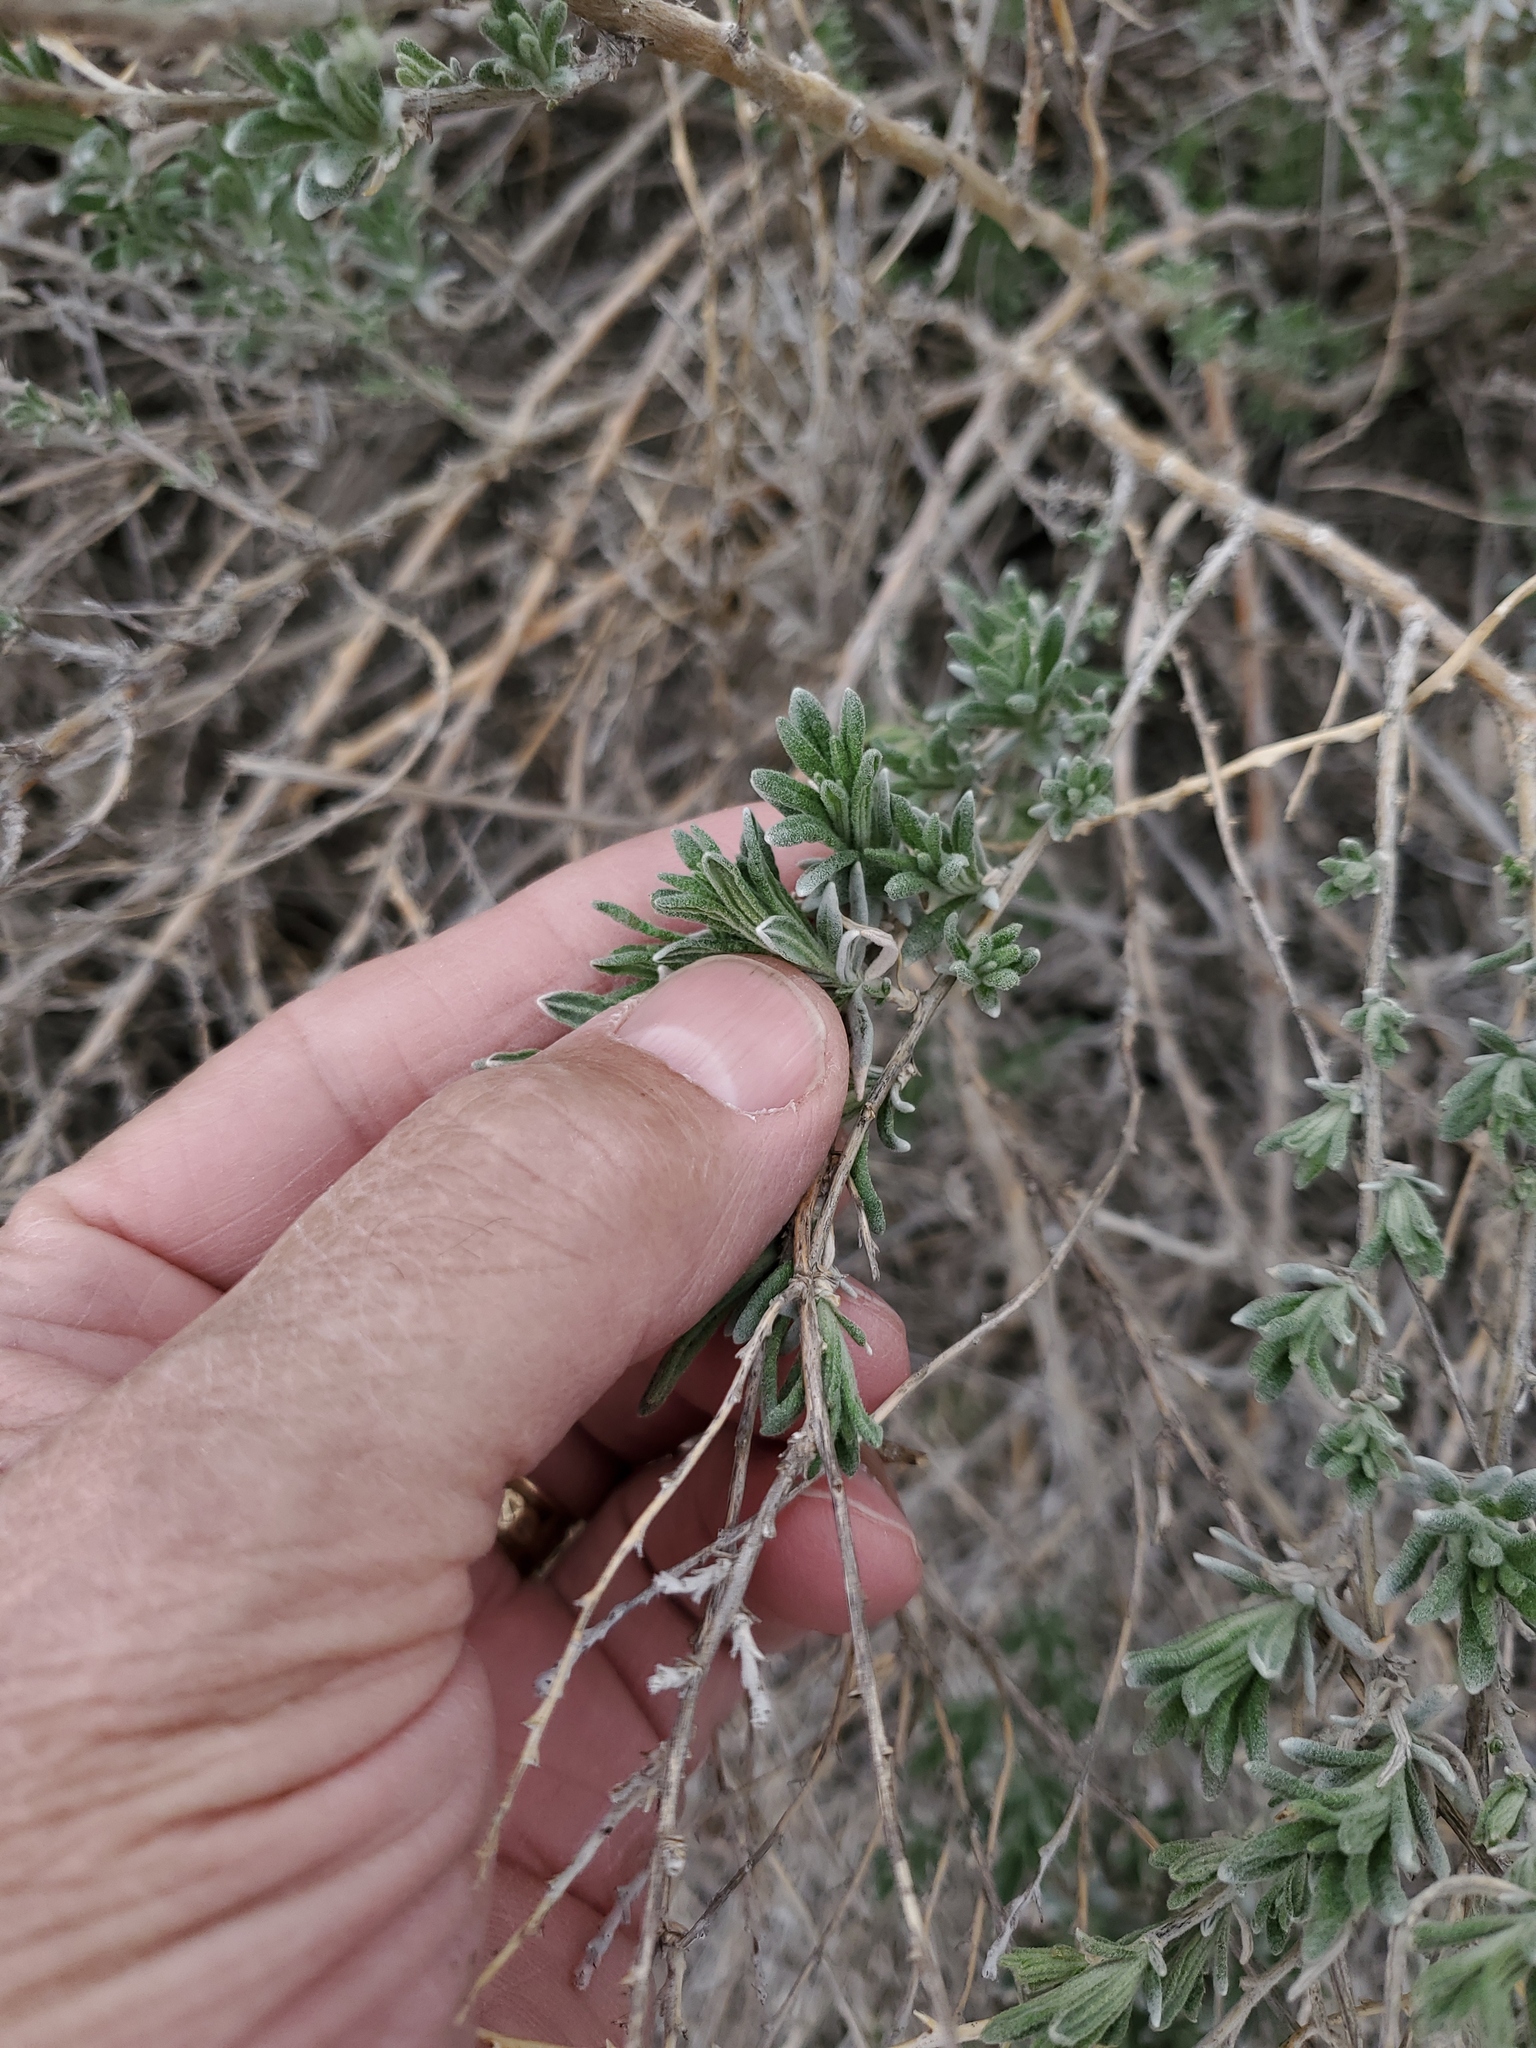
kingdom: Plantae
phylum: Tracheophyta
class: Magnoliopsida
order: Caryophyllales
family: Amaranthaceae
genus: Krascheninnikovia
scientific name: Krascheninnikovia lanata
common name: Winterfat
